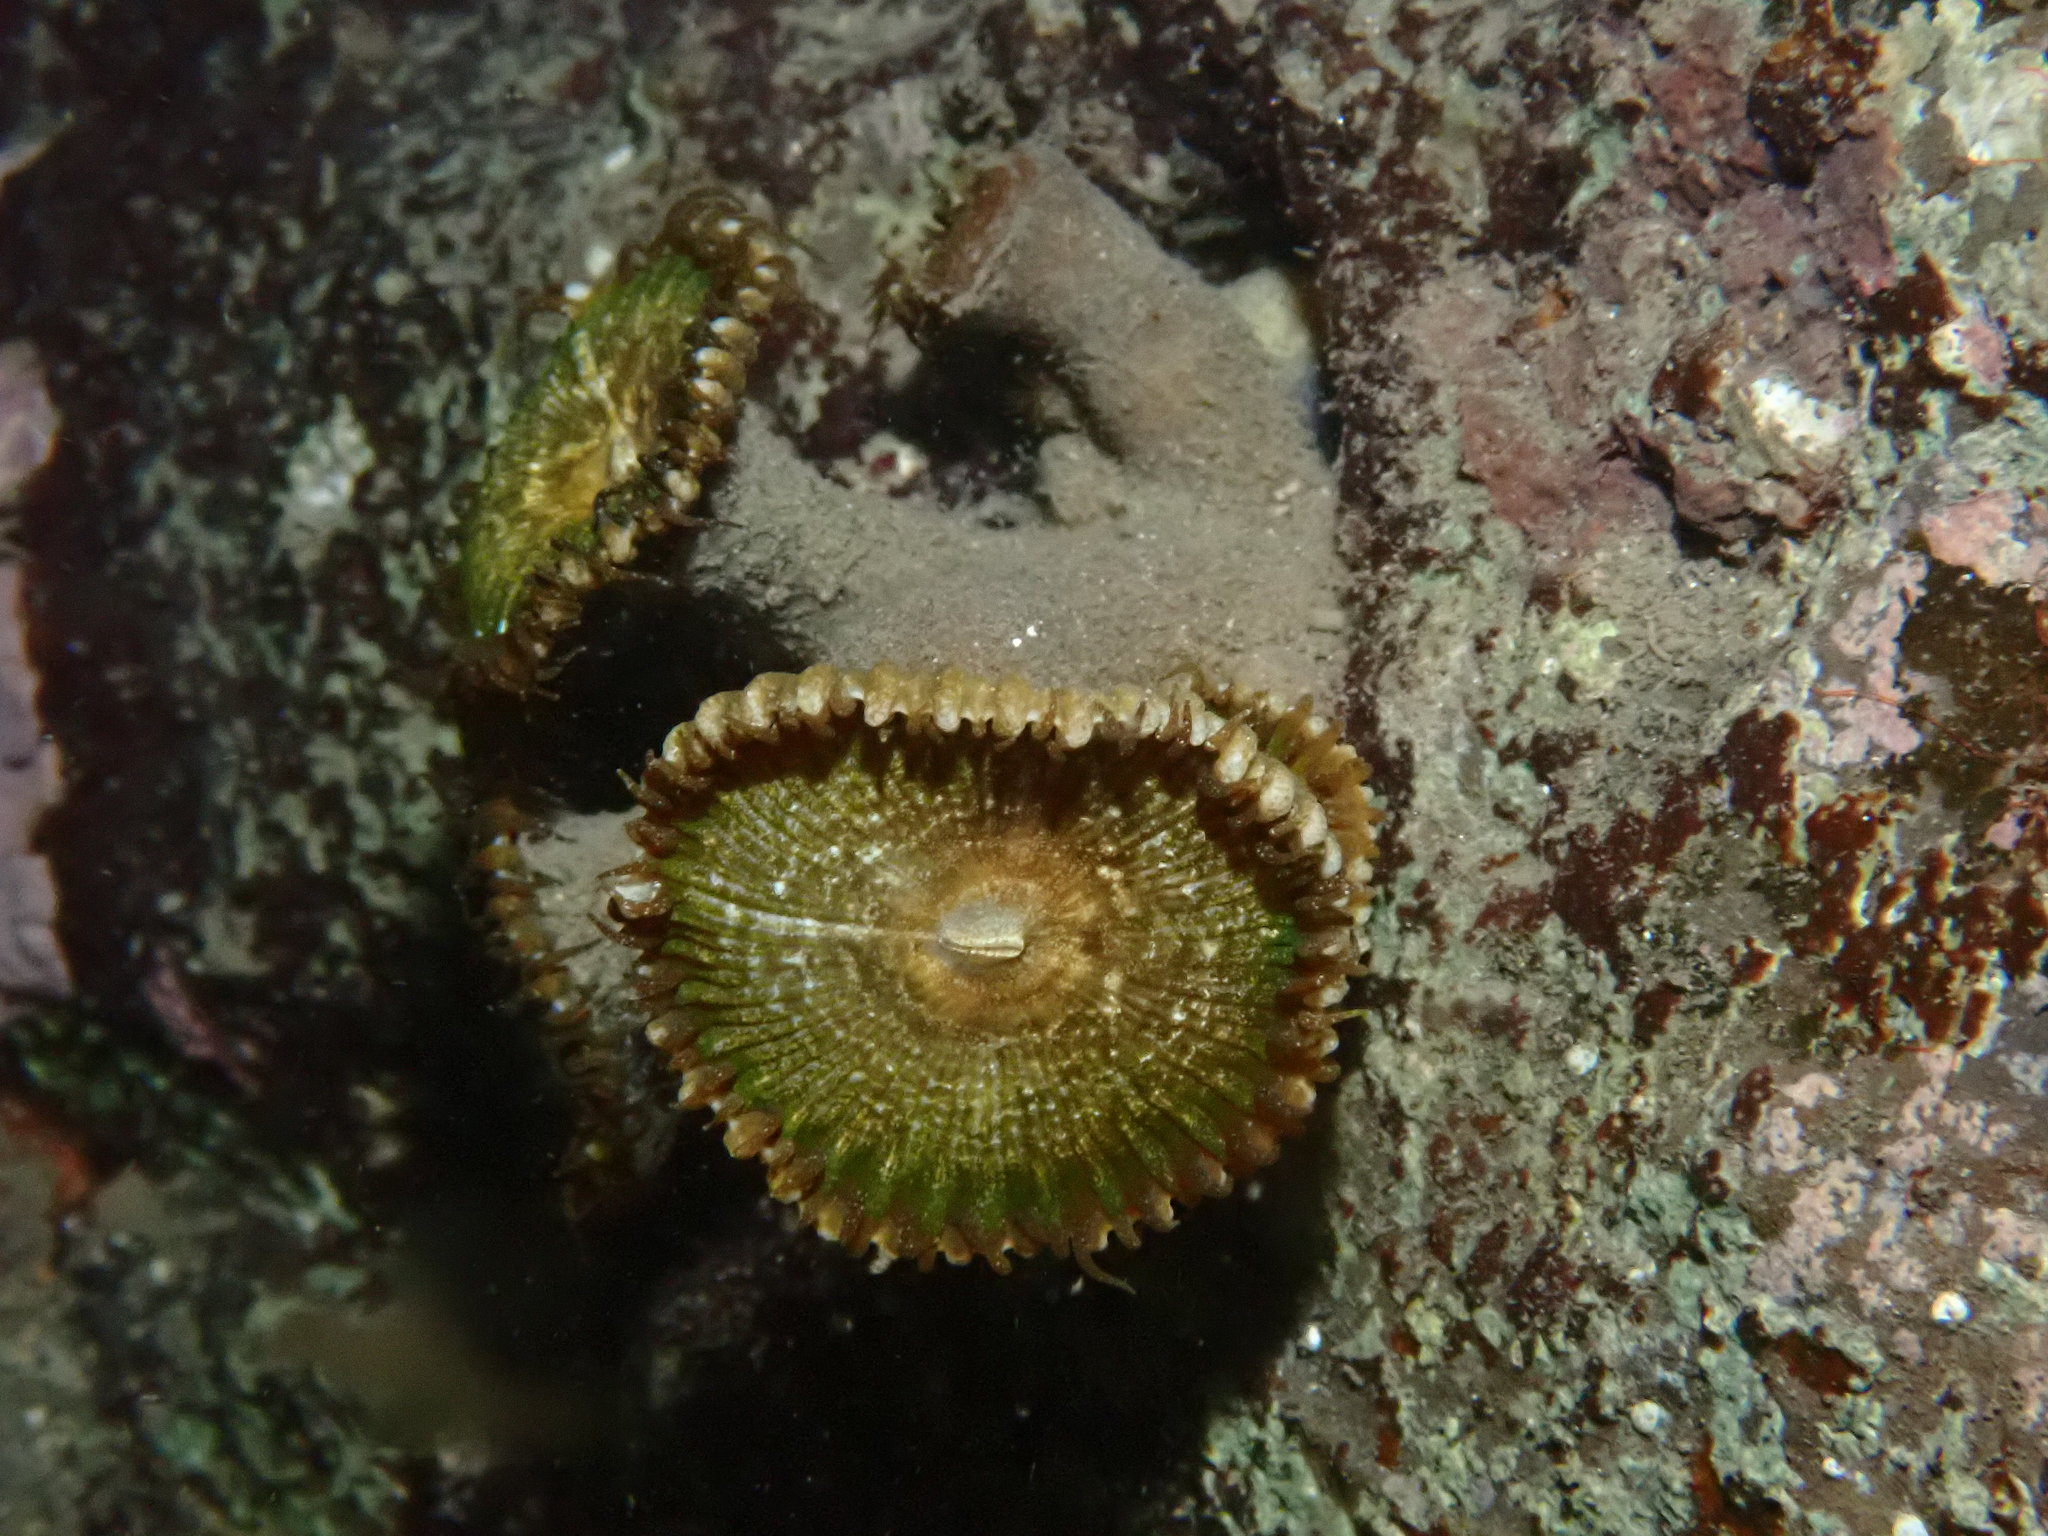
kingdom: Animalia
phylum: Cnidaria
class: Anthozoa
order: Zoantharia
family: Sphenopidae
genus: Palythoa
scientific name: Palythoa mutuki
